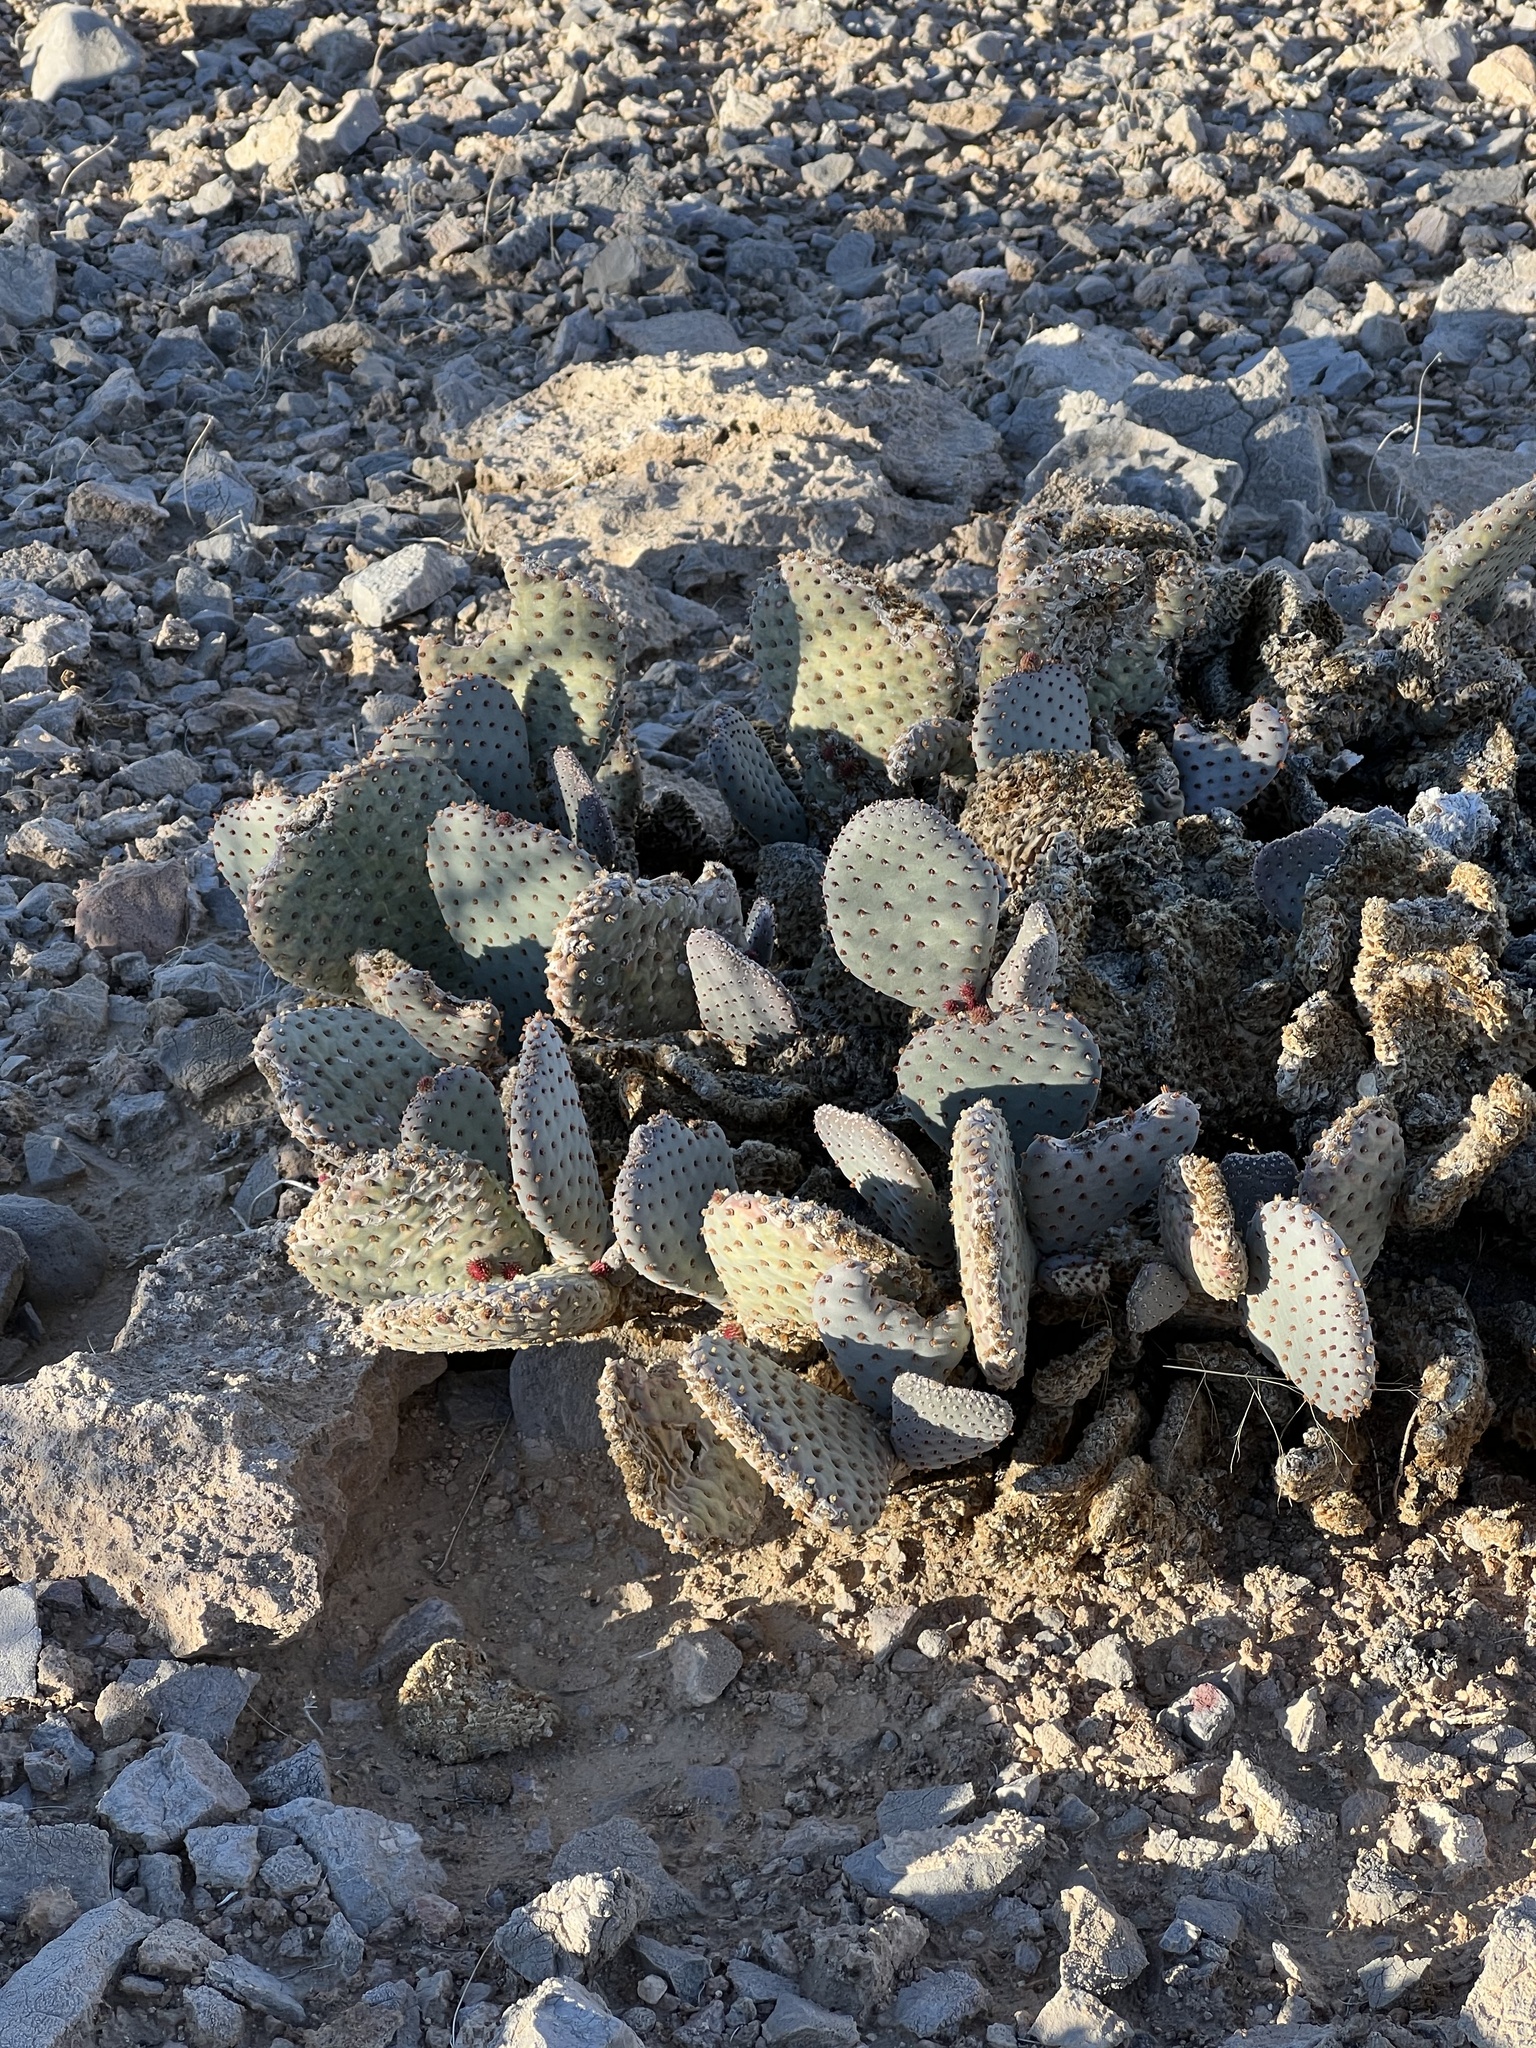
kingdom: Plantae
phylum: Tracheophyta
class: Magnoliopsida
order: Caryophyllales
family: Cactaceae
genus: Opuntia
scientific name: Opuntia basilaris
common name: Beavertail prickly-pear
